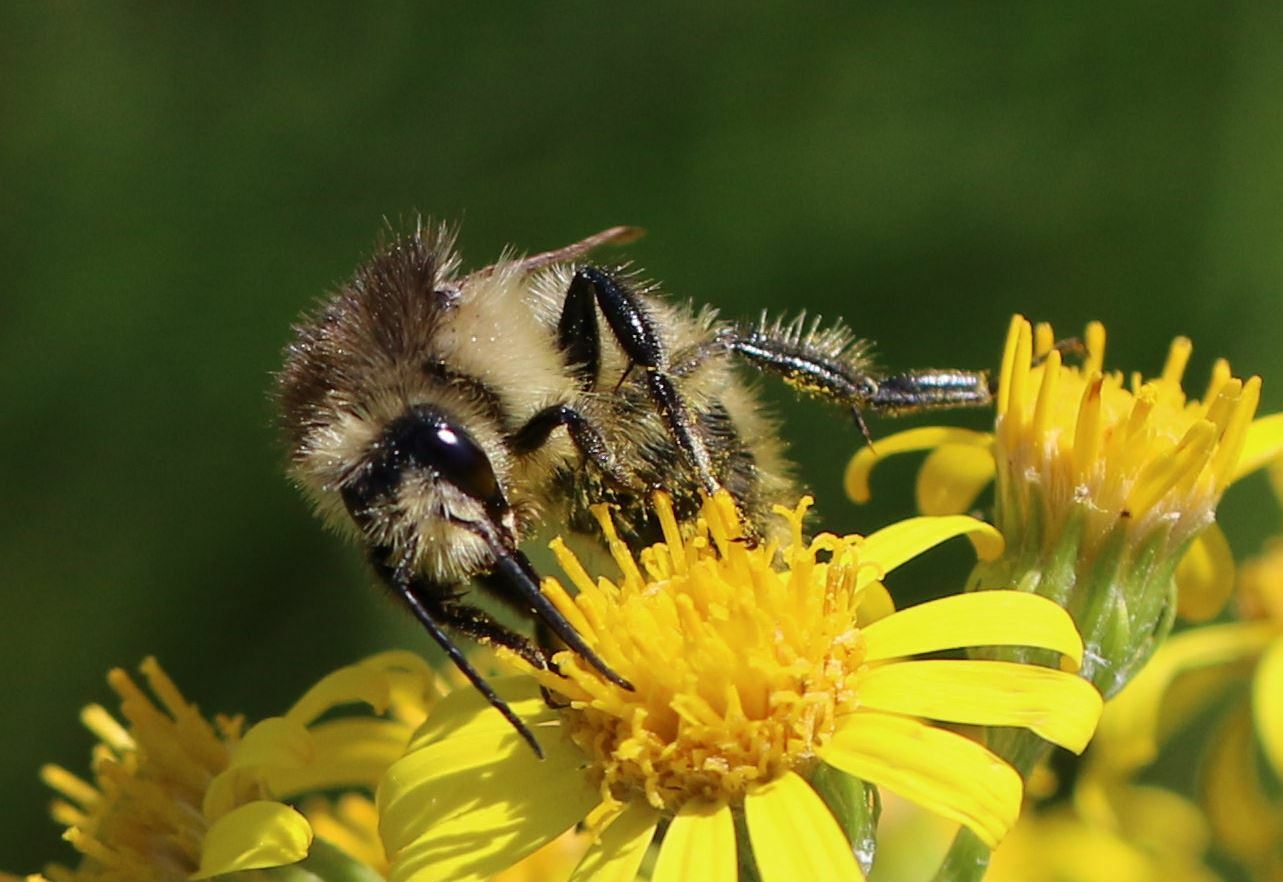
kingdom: Animalia
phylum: Arthropoda
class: Insecta
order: Hymenoptera
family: Apidae
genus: Bombus
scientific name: Bombus humilis
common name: Brown-banded carder-bee
